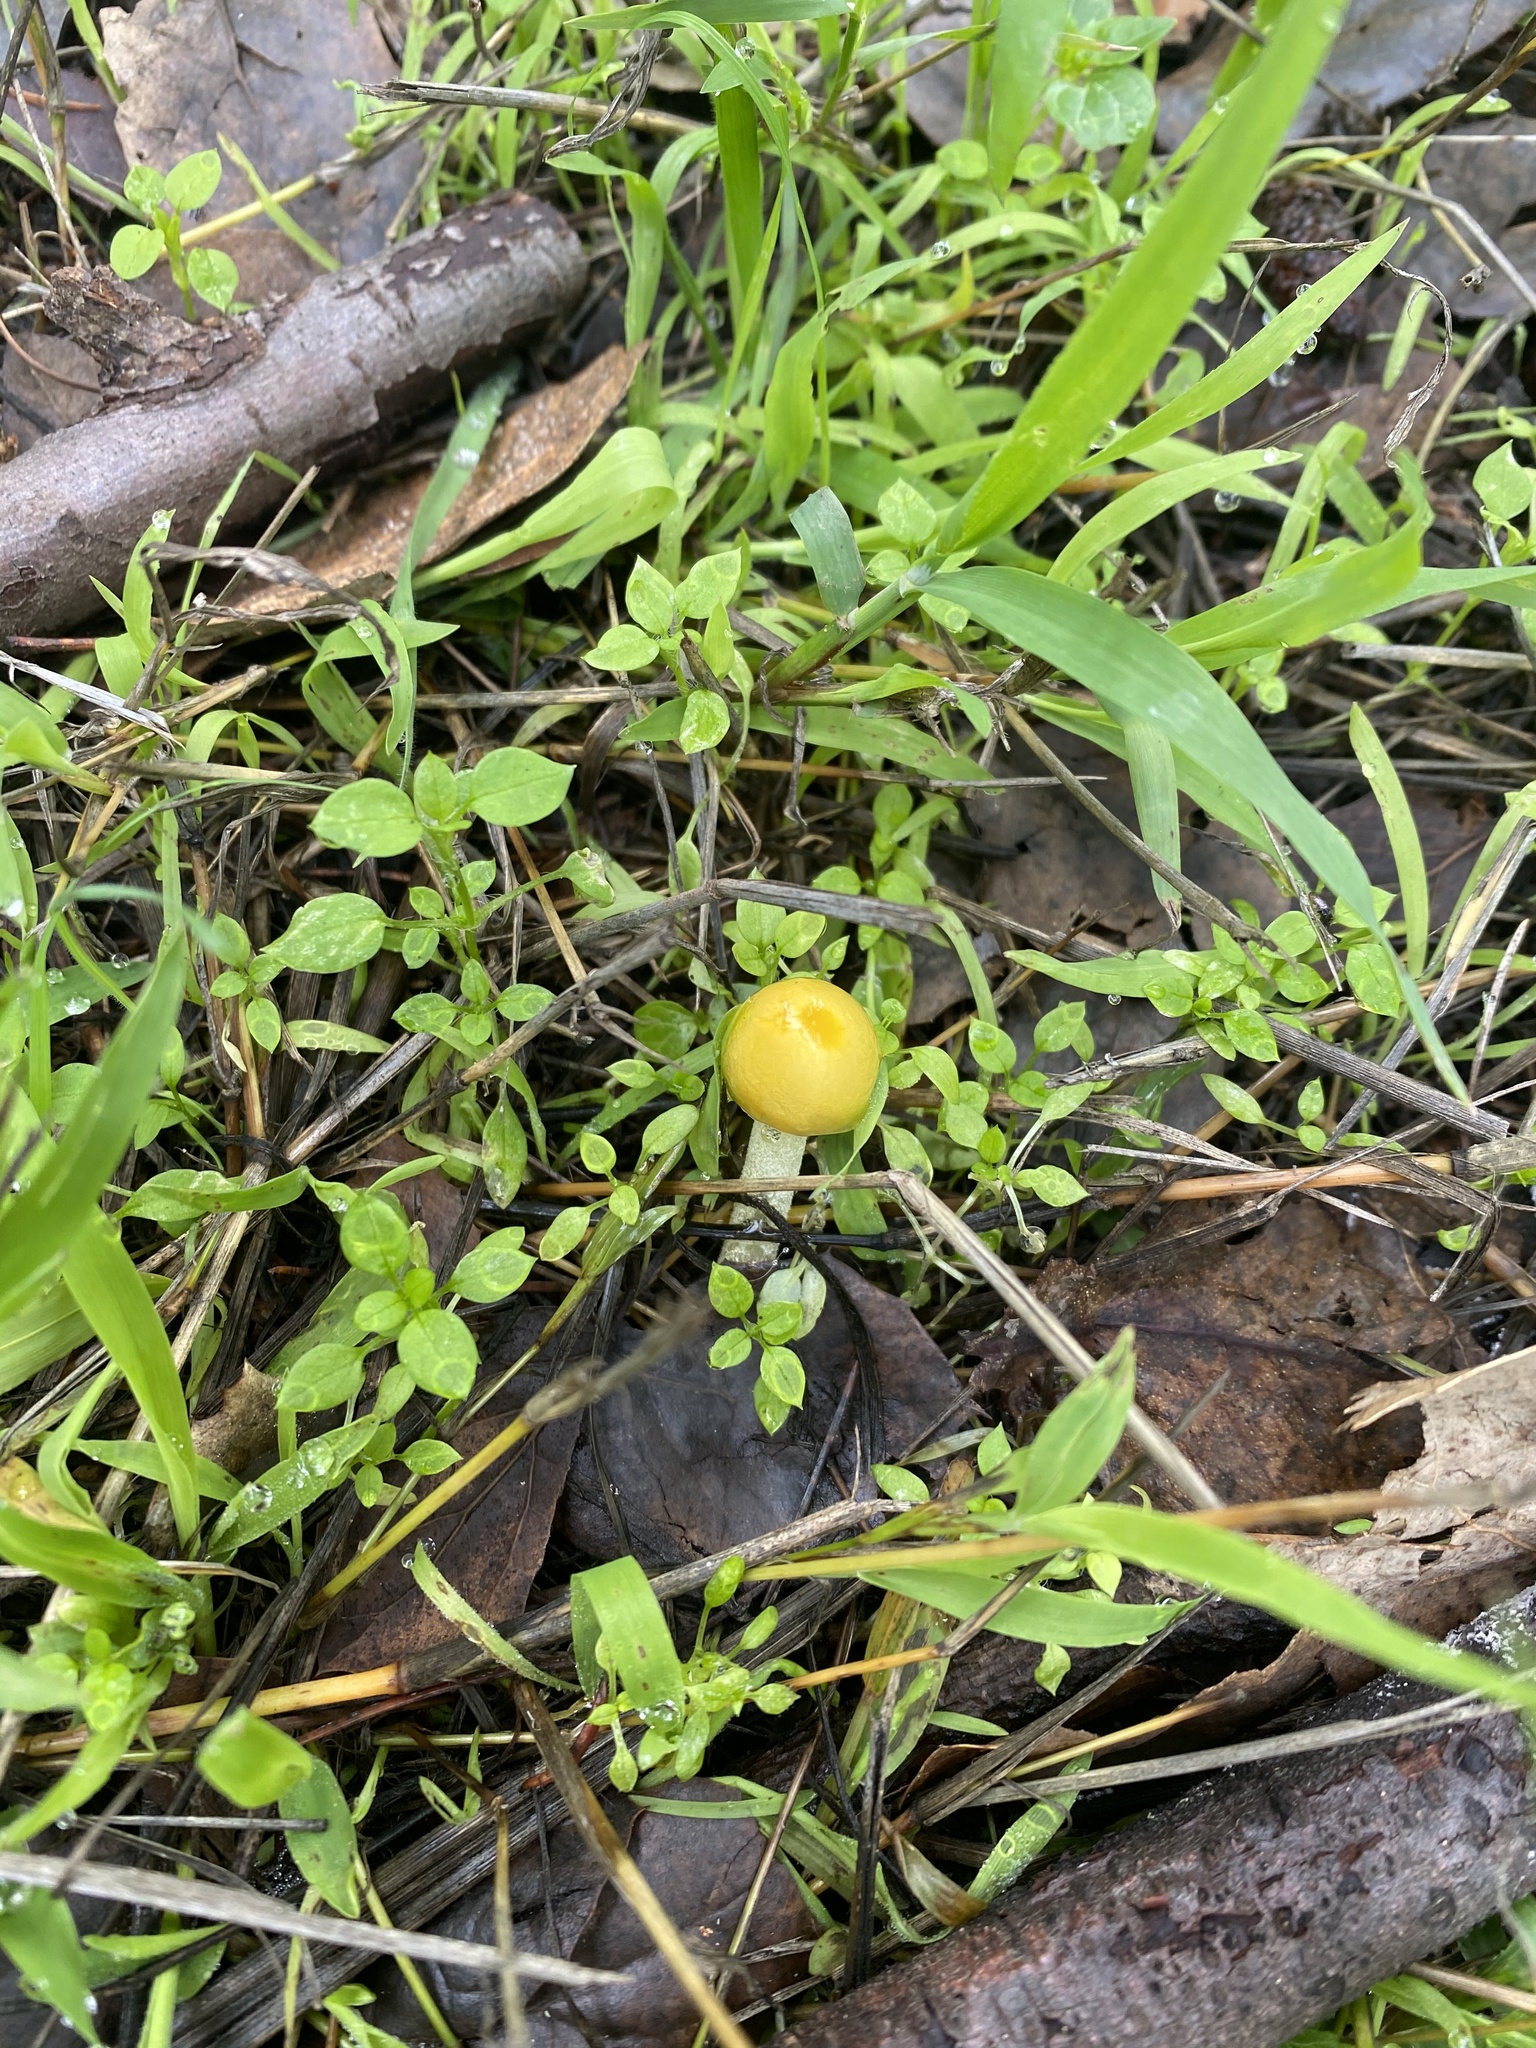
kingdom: Fungi
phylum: Basidiomycota
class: Agaricomycetes
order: Agaricales
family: Bolbitiaceae
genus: Bolbitius
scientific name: Bolbitius titubans
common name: Yellow fieldcap
